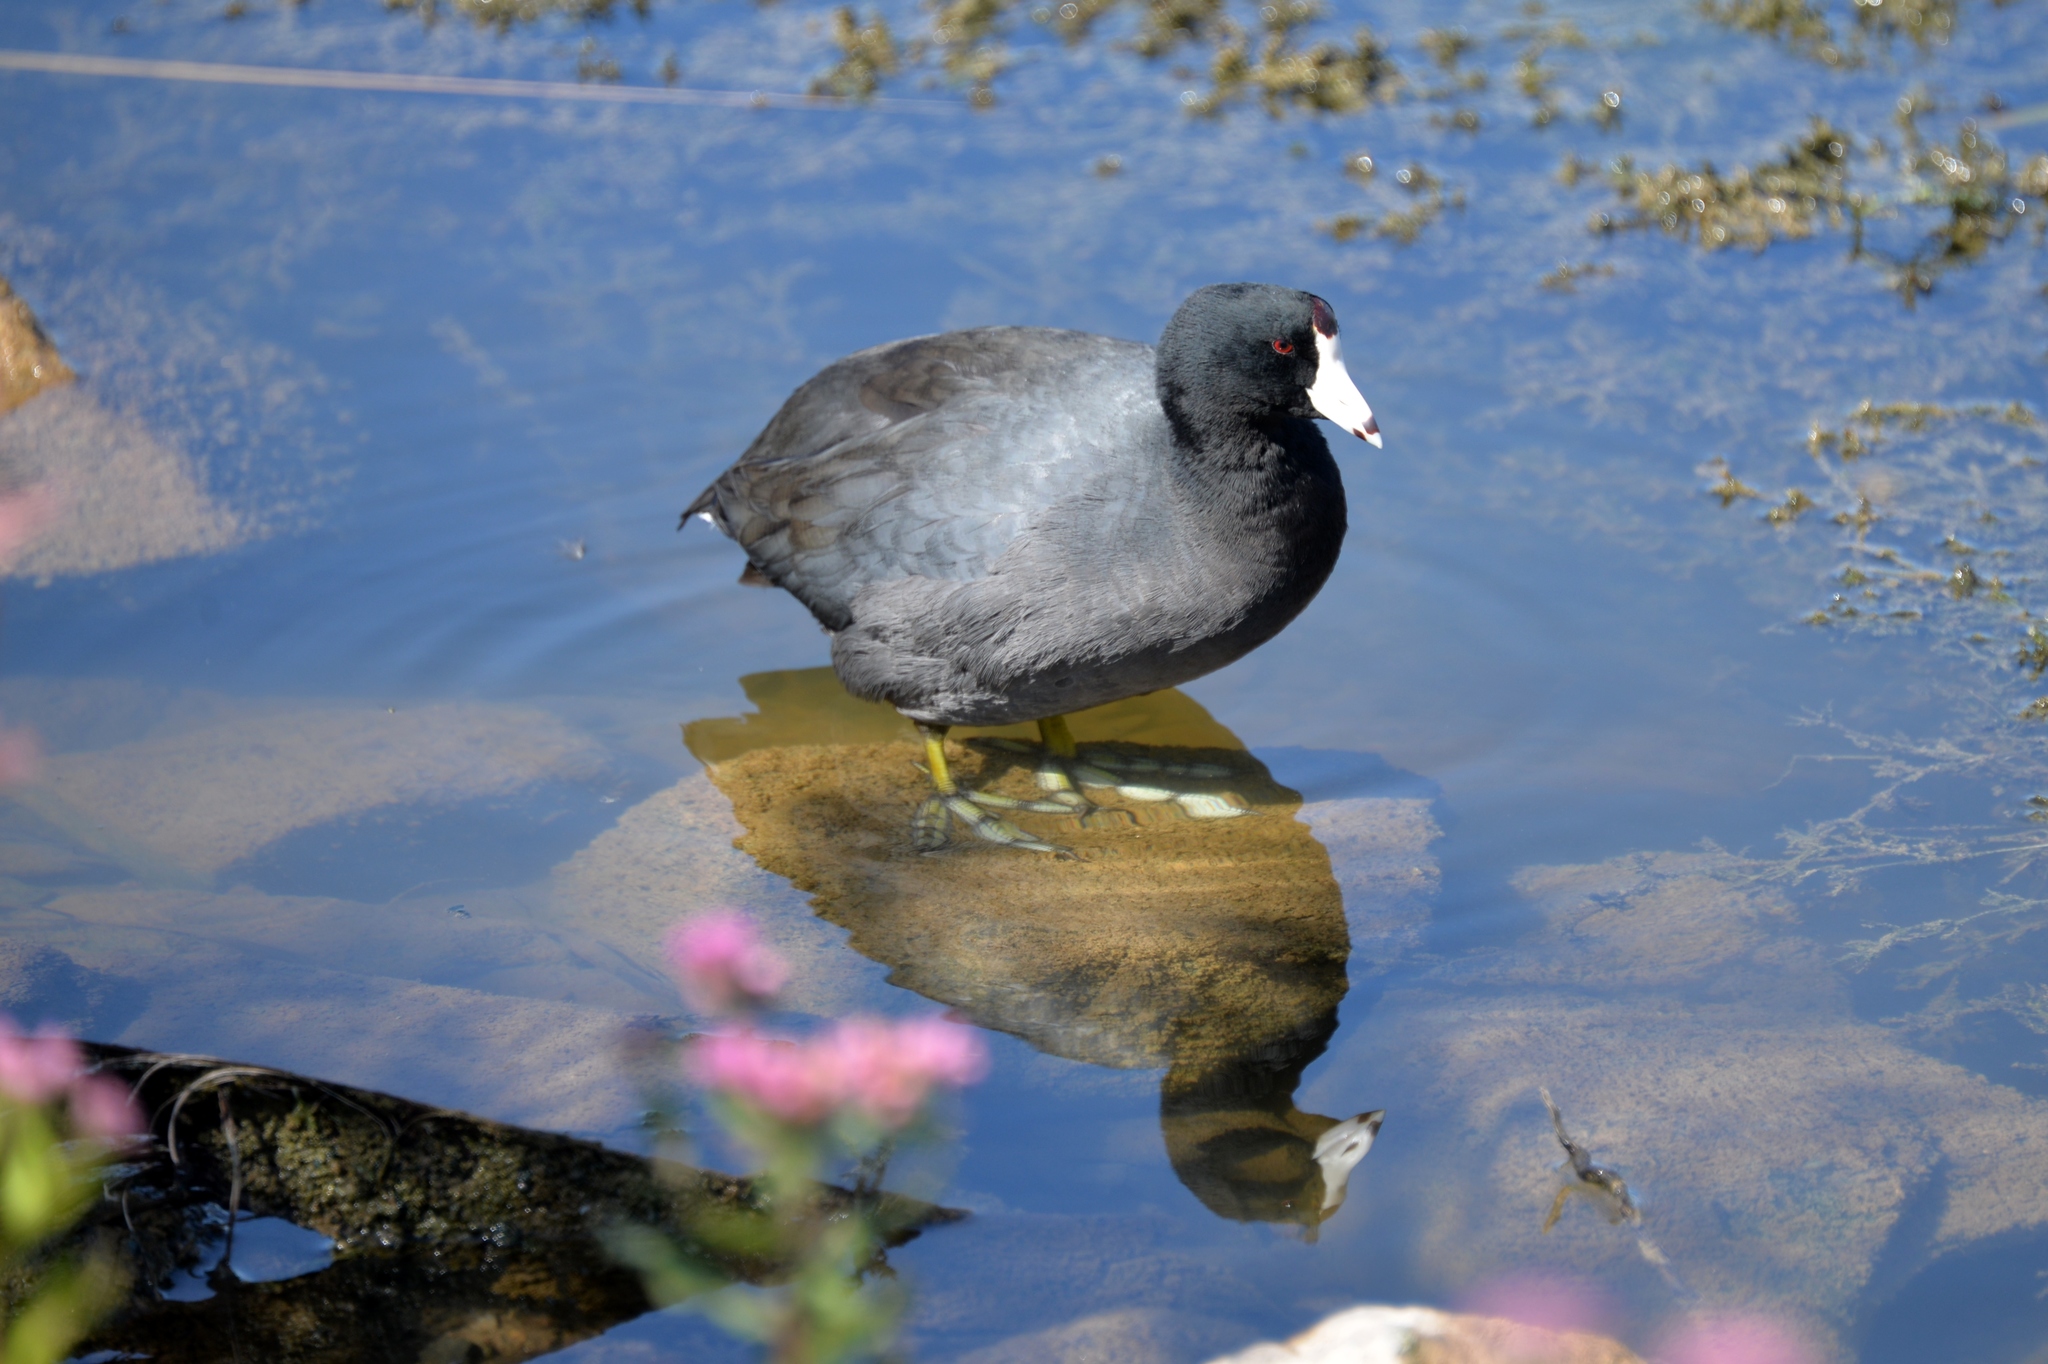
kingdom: Animalia
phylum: Chordata
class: Aves
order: Gruiformes
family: Rallidae
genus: Fulica
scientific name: Fulica americana
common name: American coot
